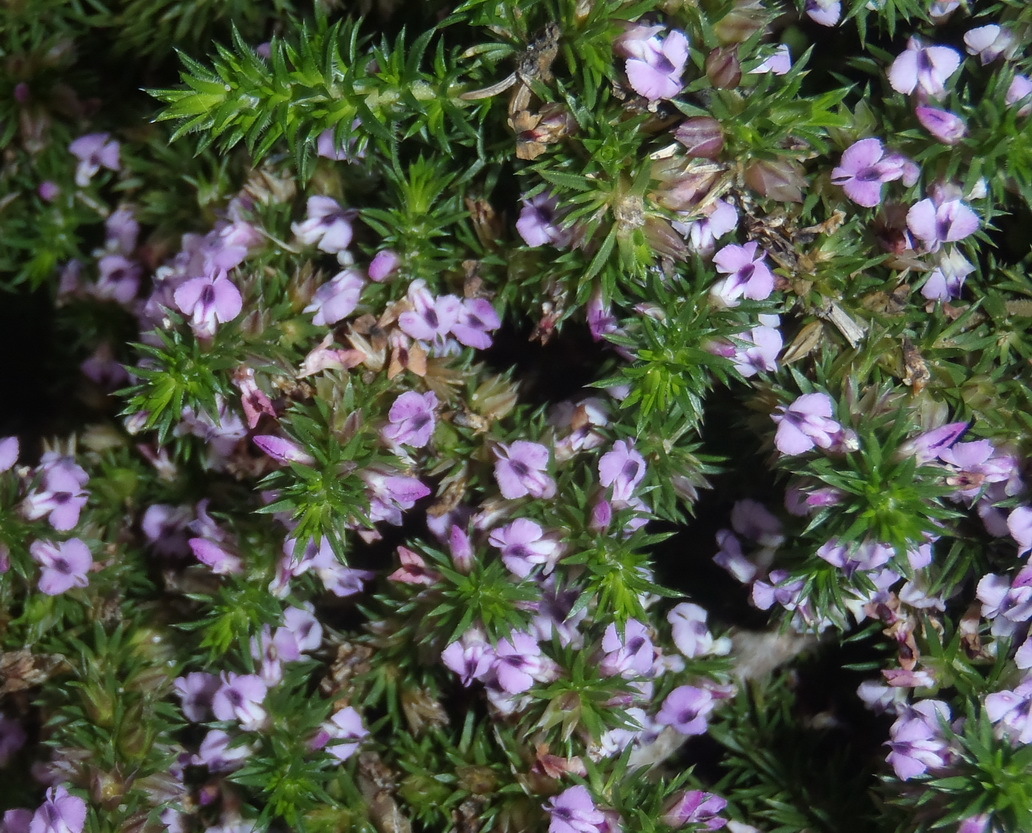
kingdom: Plantae
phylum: Tracheophyta
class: Magnoliopsida
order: Fabales
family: Polygalaceae
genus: Muraltia
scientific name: Muraltia ericifolia
